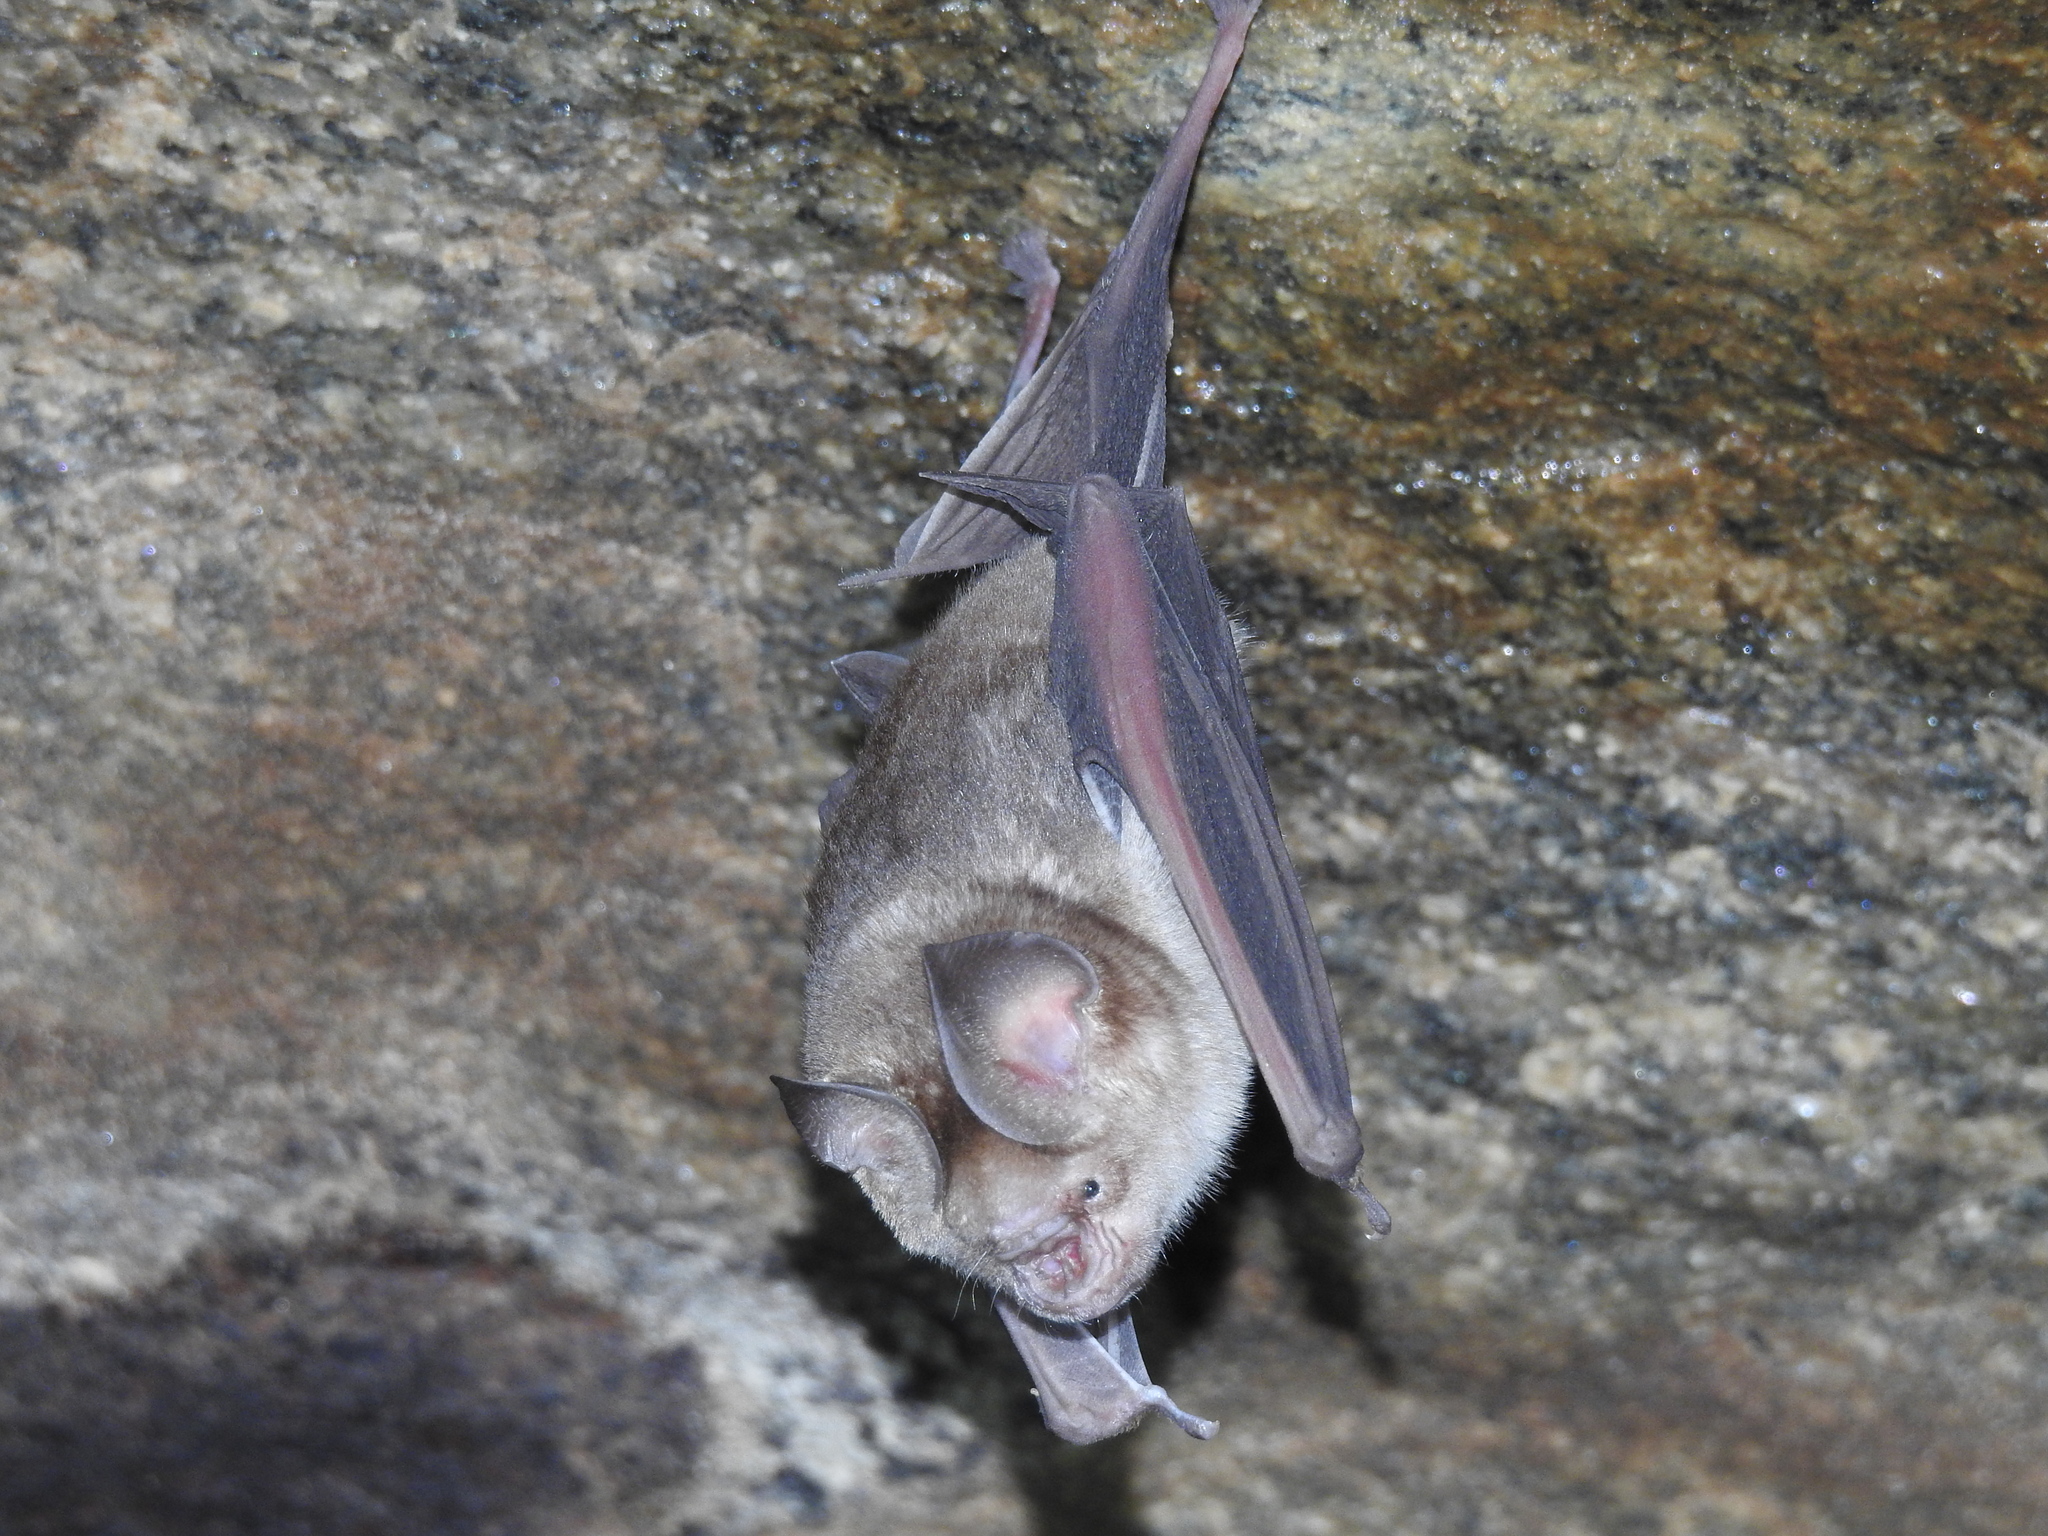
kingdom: Animalia
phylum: Chordata
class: Mammalia
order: Chiroptera
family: Hipposideridae
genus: Hipposideros
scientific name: Hipposideros speoris
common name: Schneider's roundleaf bat
